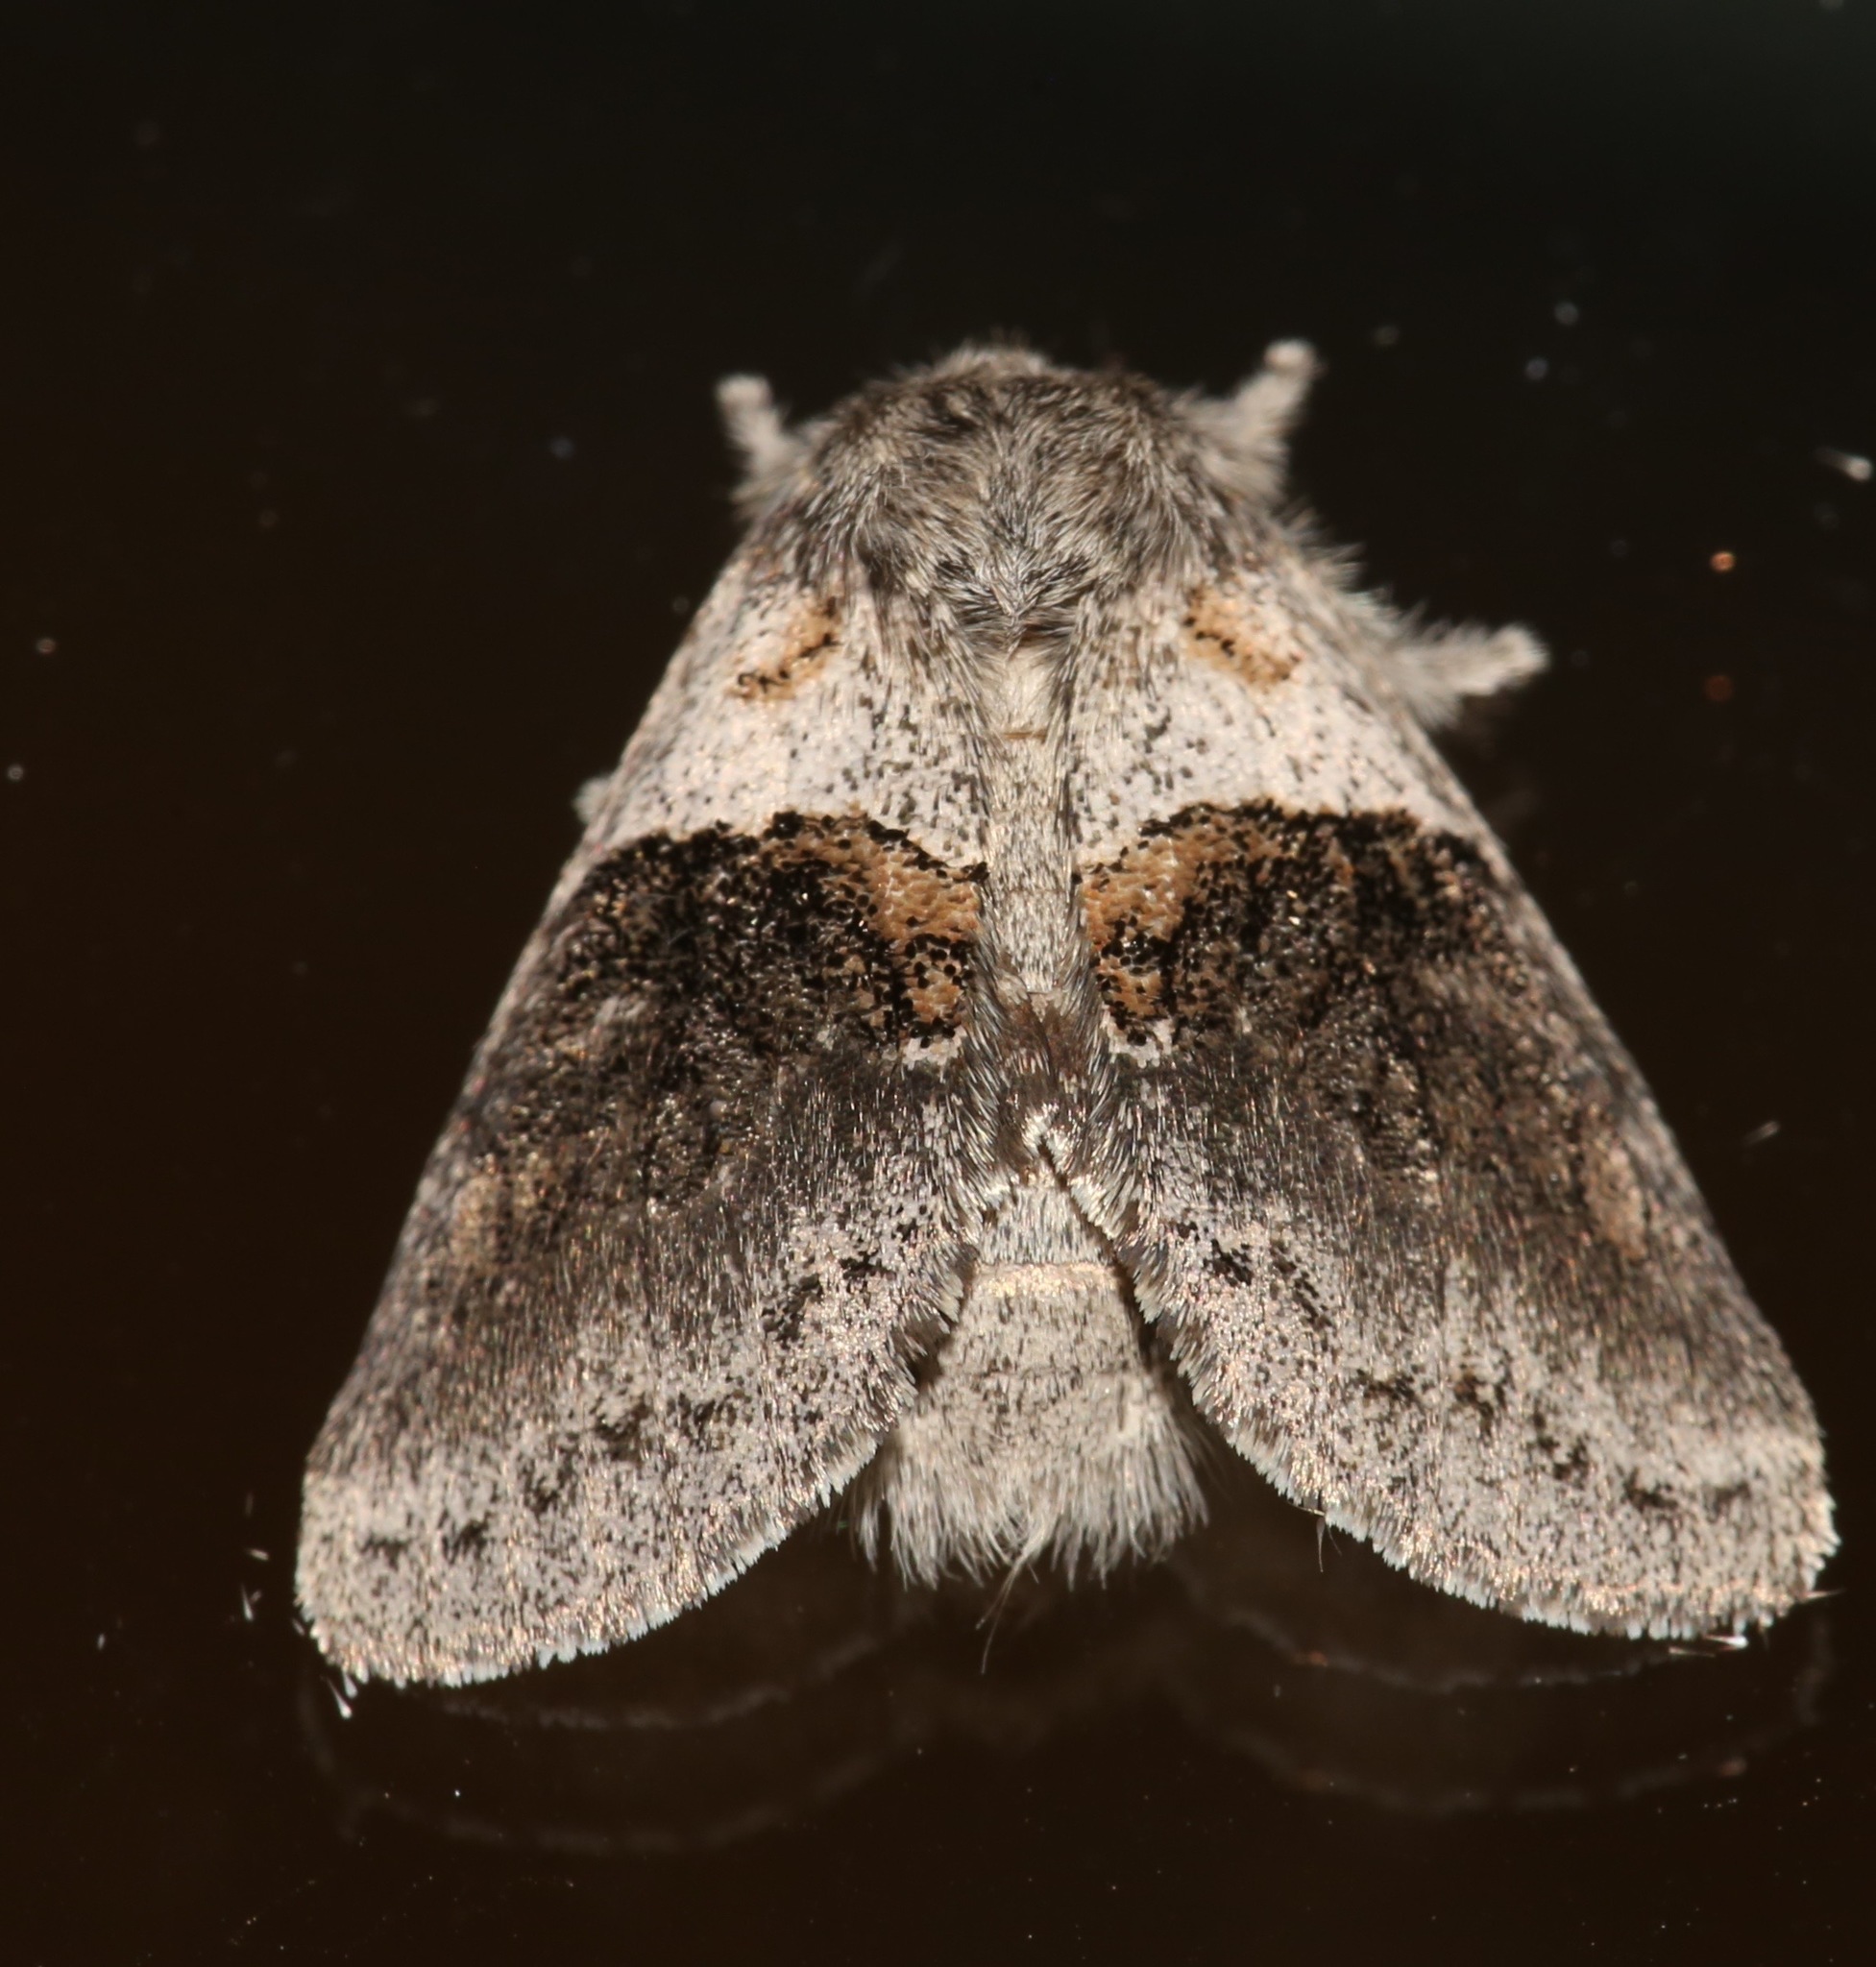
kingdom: Animalia
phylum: Arthropoda
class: Insecta
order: Lepidoptera
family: Notodontidae
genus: Gluphisia
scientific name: Gluphisia septentrionis
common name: Common gluphisia
